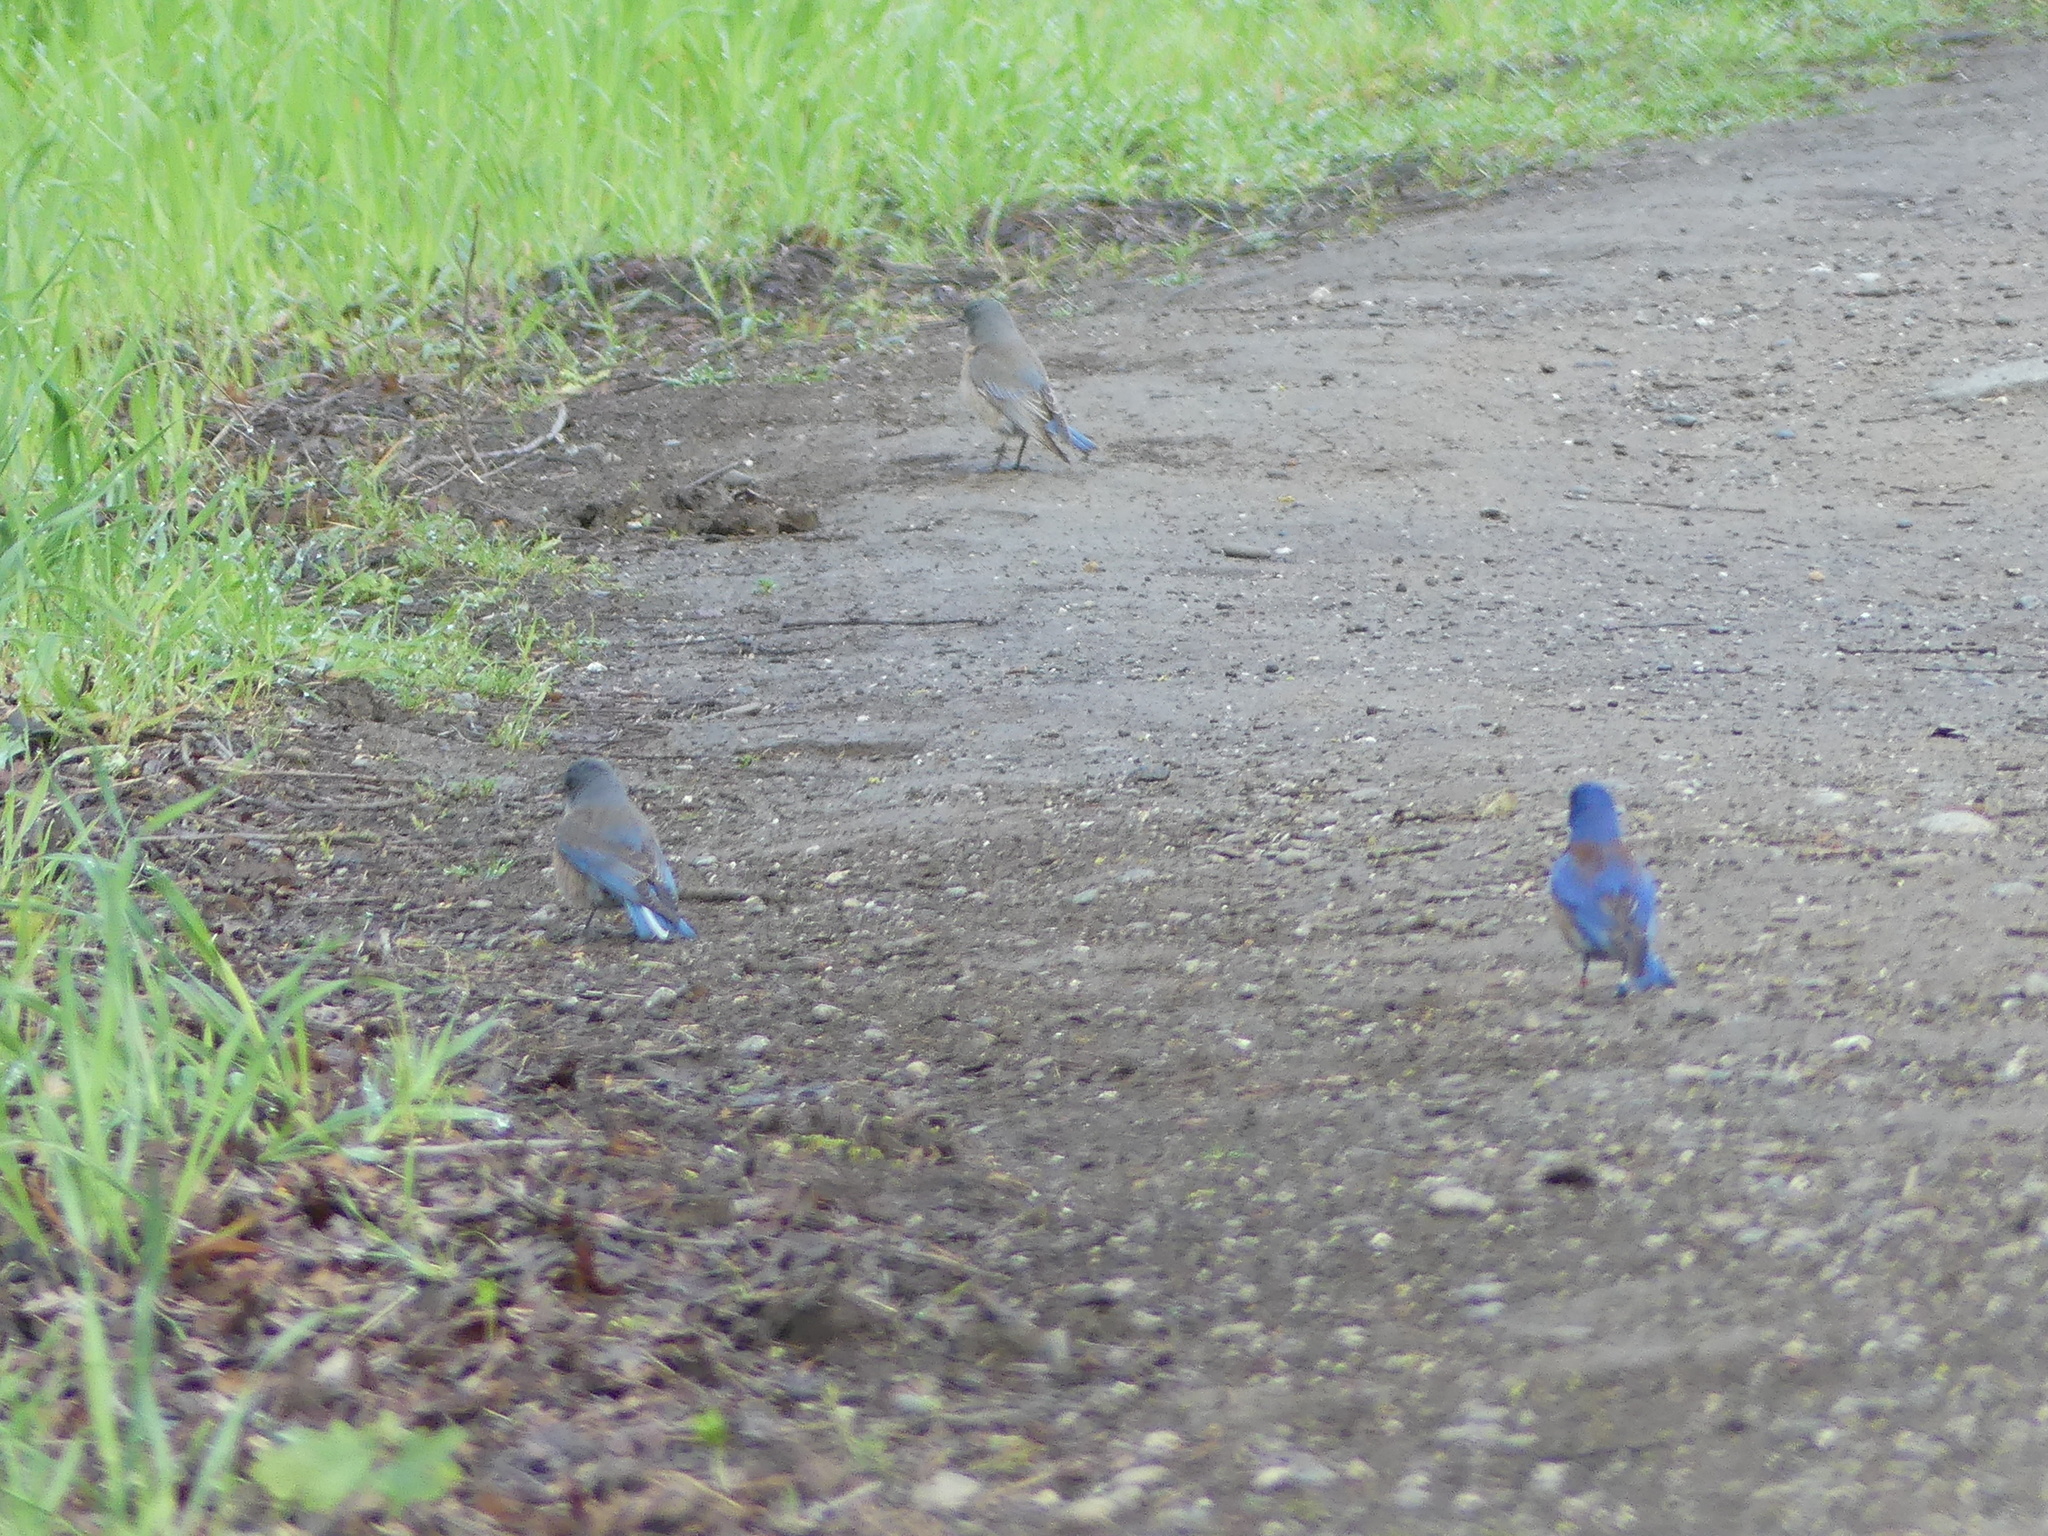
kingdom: Animalia
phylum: Chordata
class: Aves
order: Passeriformes
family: Turdidae
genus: Sialia
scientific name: Sialia mexicana
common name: Western bluebird
